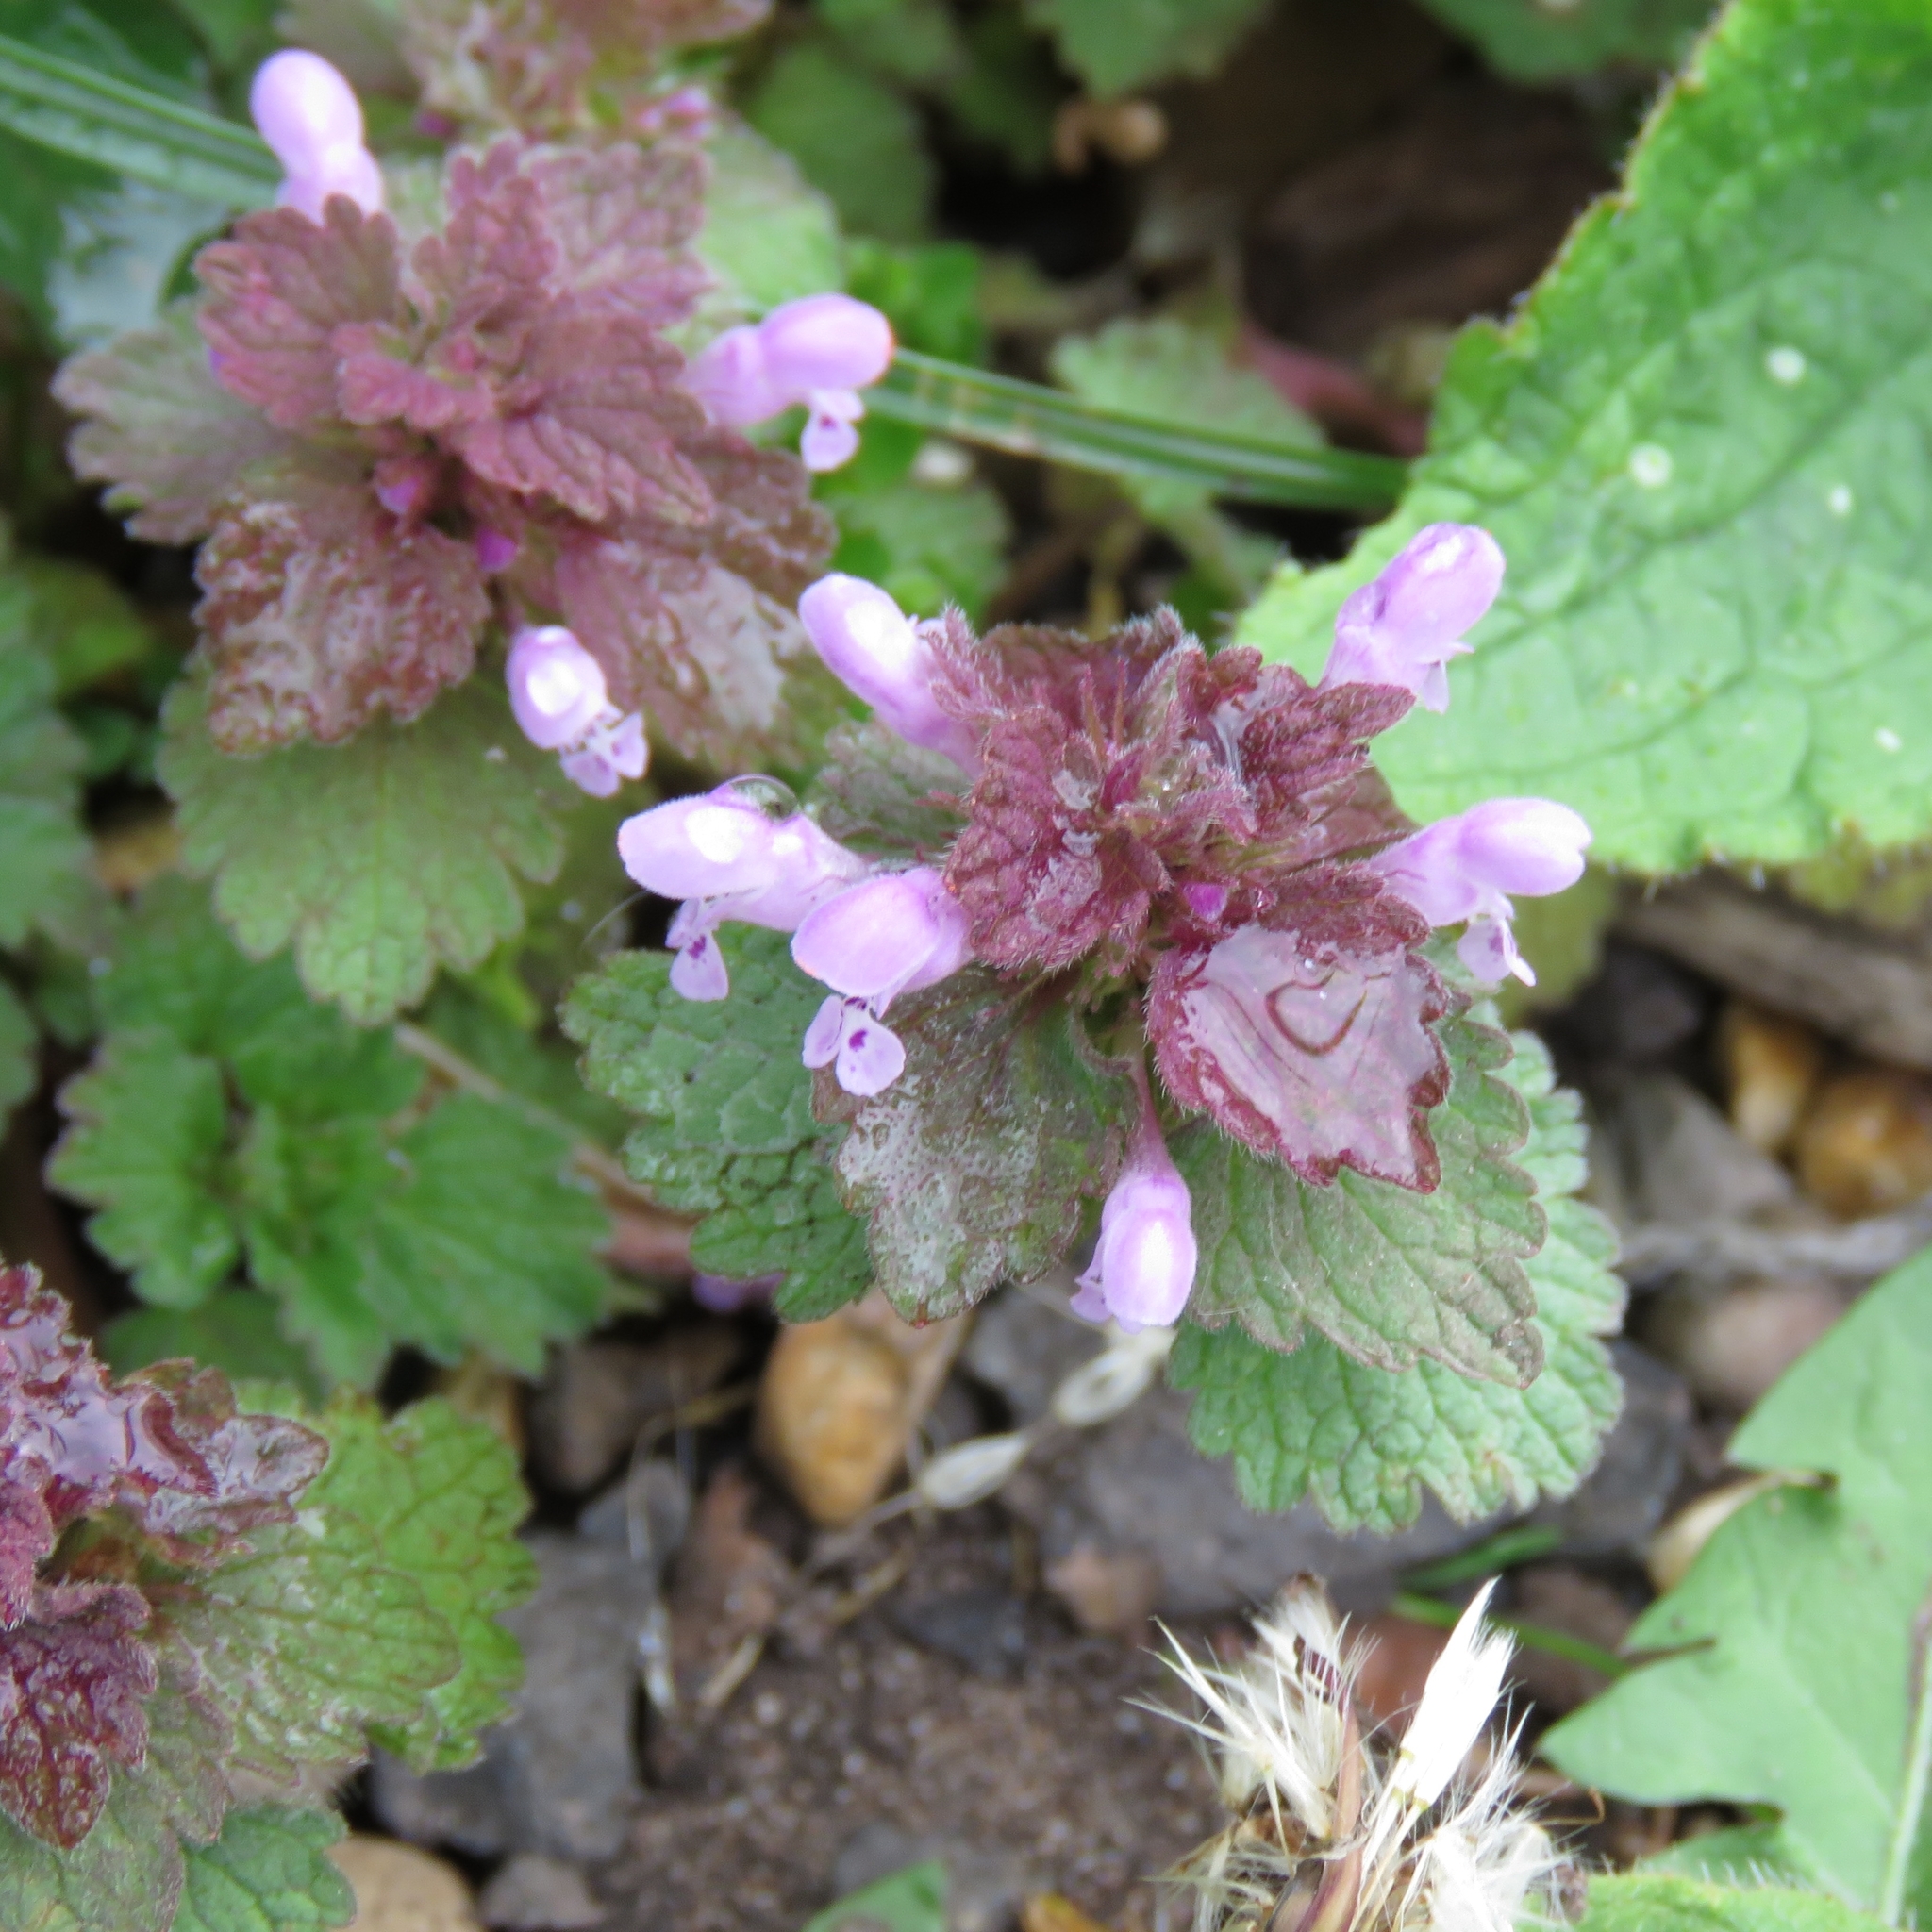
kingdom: Plantae
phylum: Tracheophyta
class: Magnoliopsida
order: Lamiales
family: Lamiaceae
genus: Lamium
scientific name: Lamium purpureum
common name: Red dead-nettle
